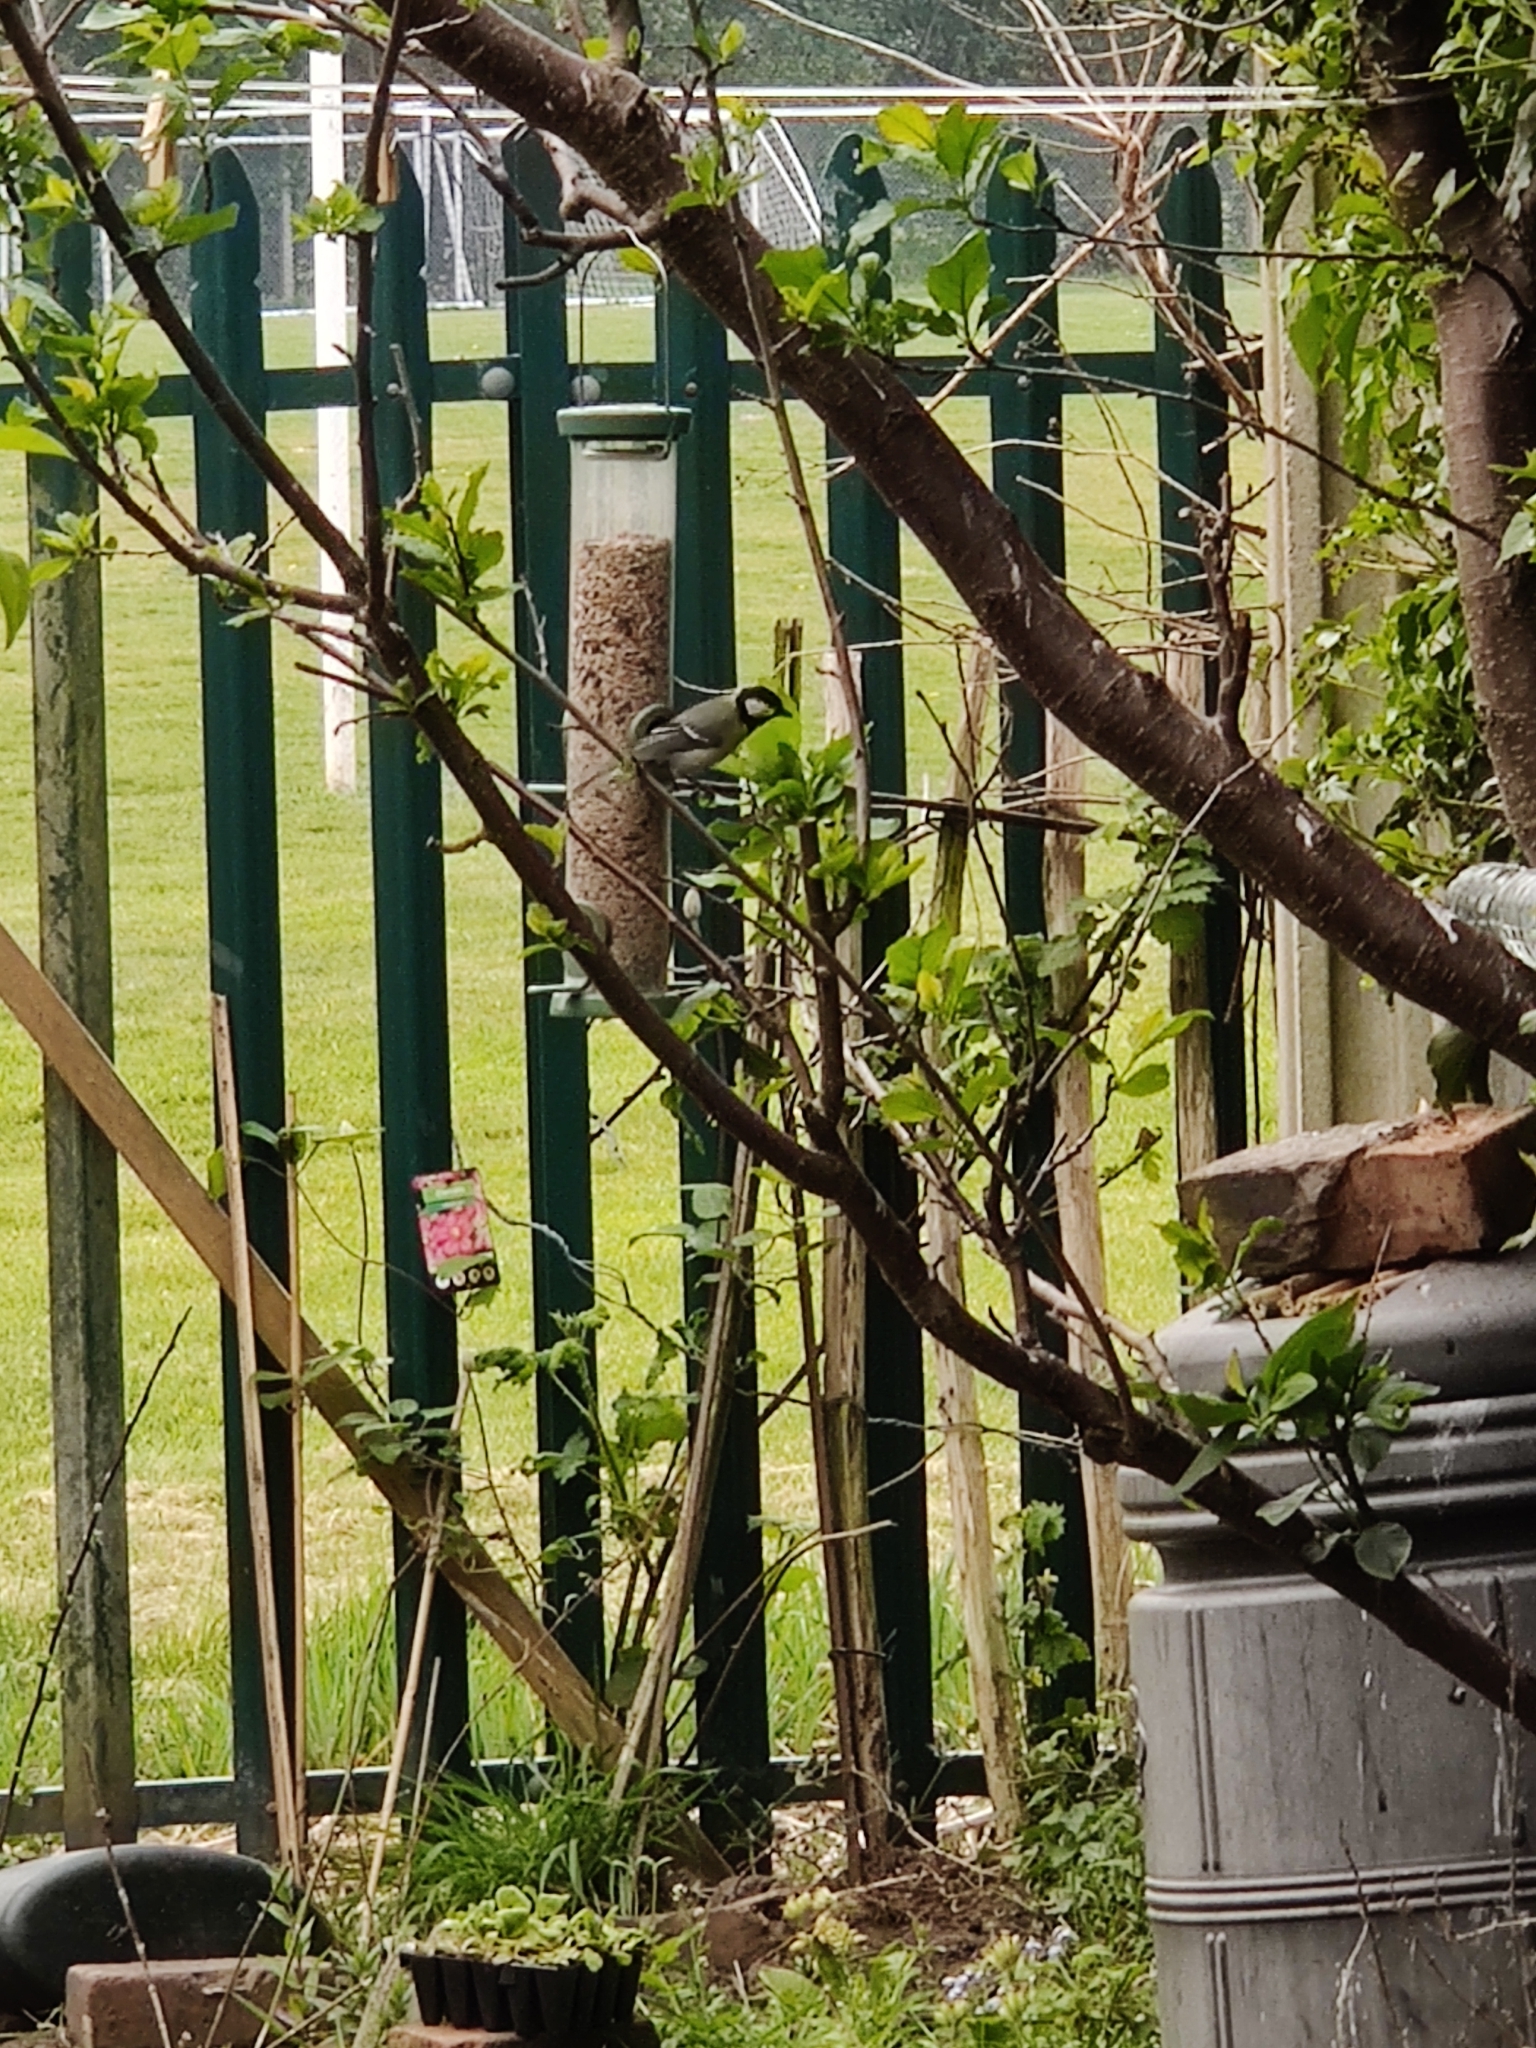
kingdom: Animalia
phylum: Chordata
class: Aves
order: Passeriformes
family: Paridae
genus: Parus
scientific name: Parus major
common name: Great tit
